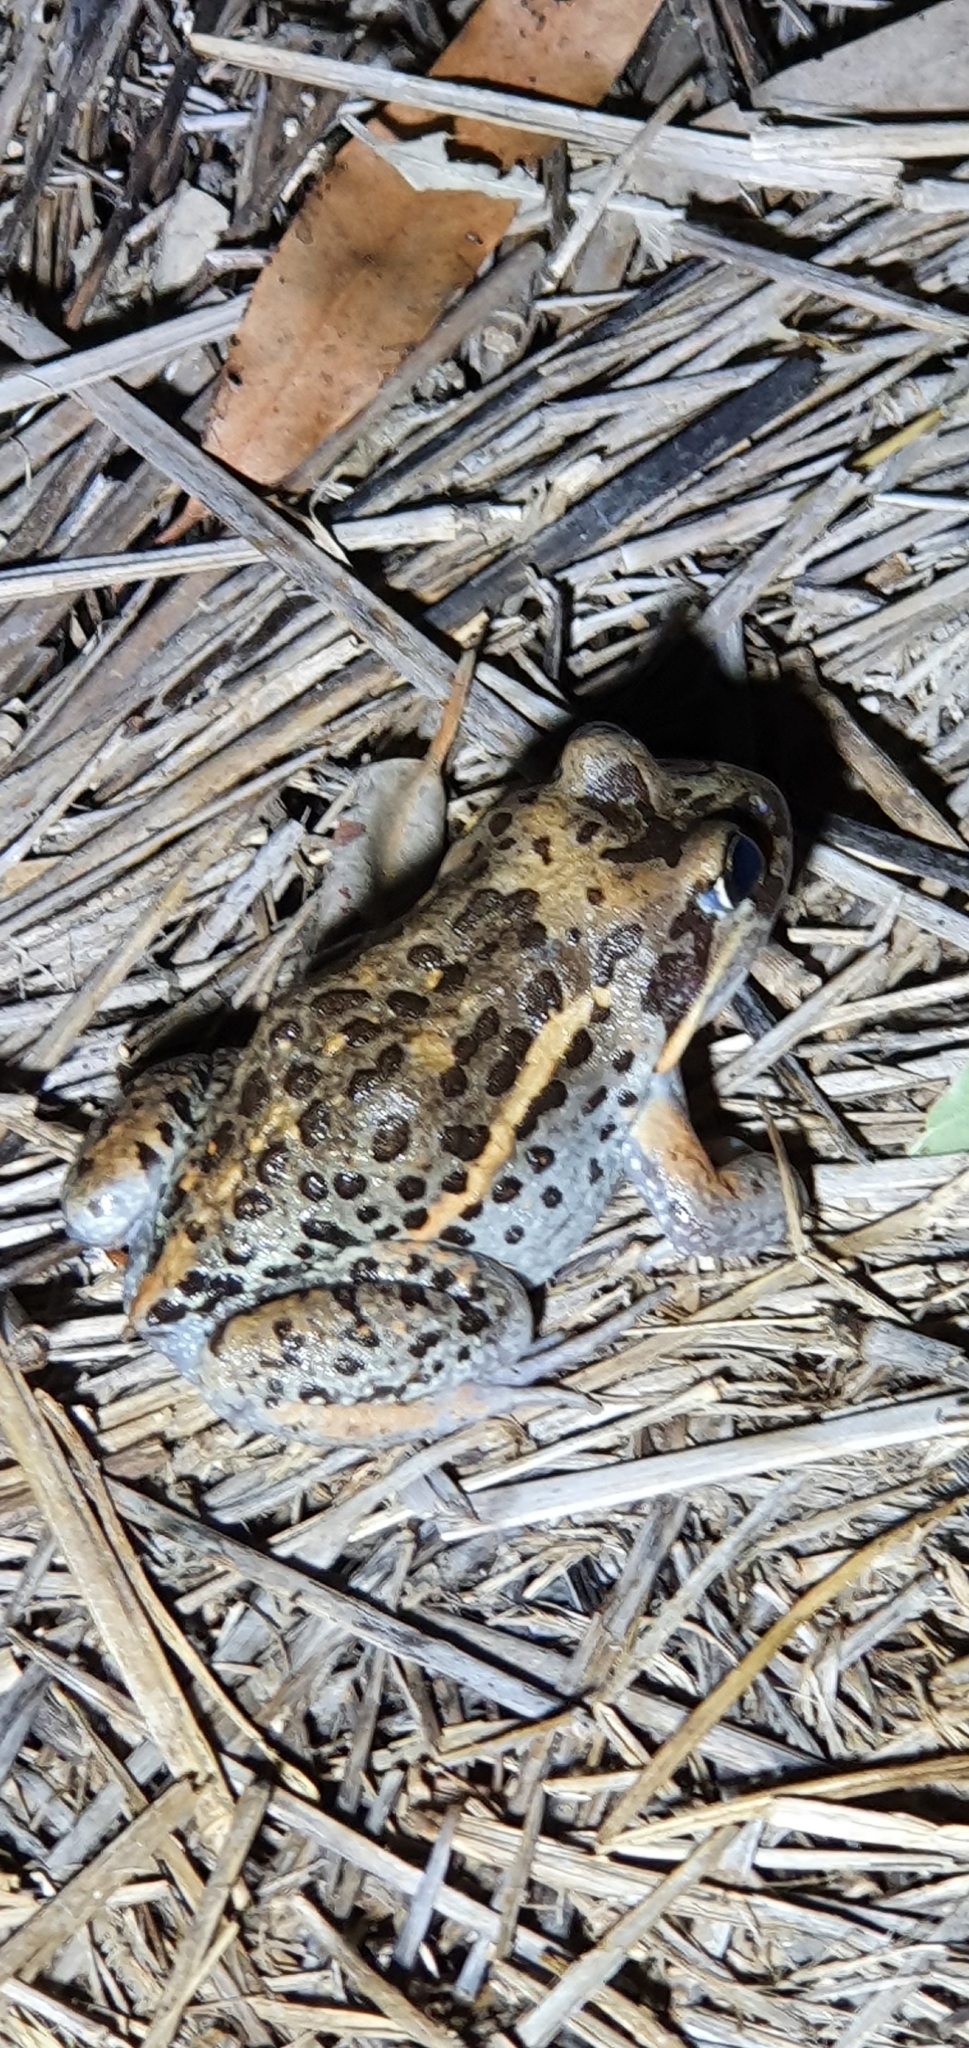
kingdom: Animalia
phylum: Chordata
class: Amphibia
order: Anura
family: Limnodynastidae
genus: Limnodynastes
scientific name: Limnodynastes salmini
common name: Salmon-striped frog
